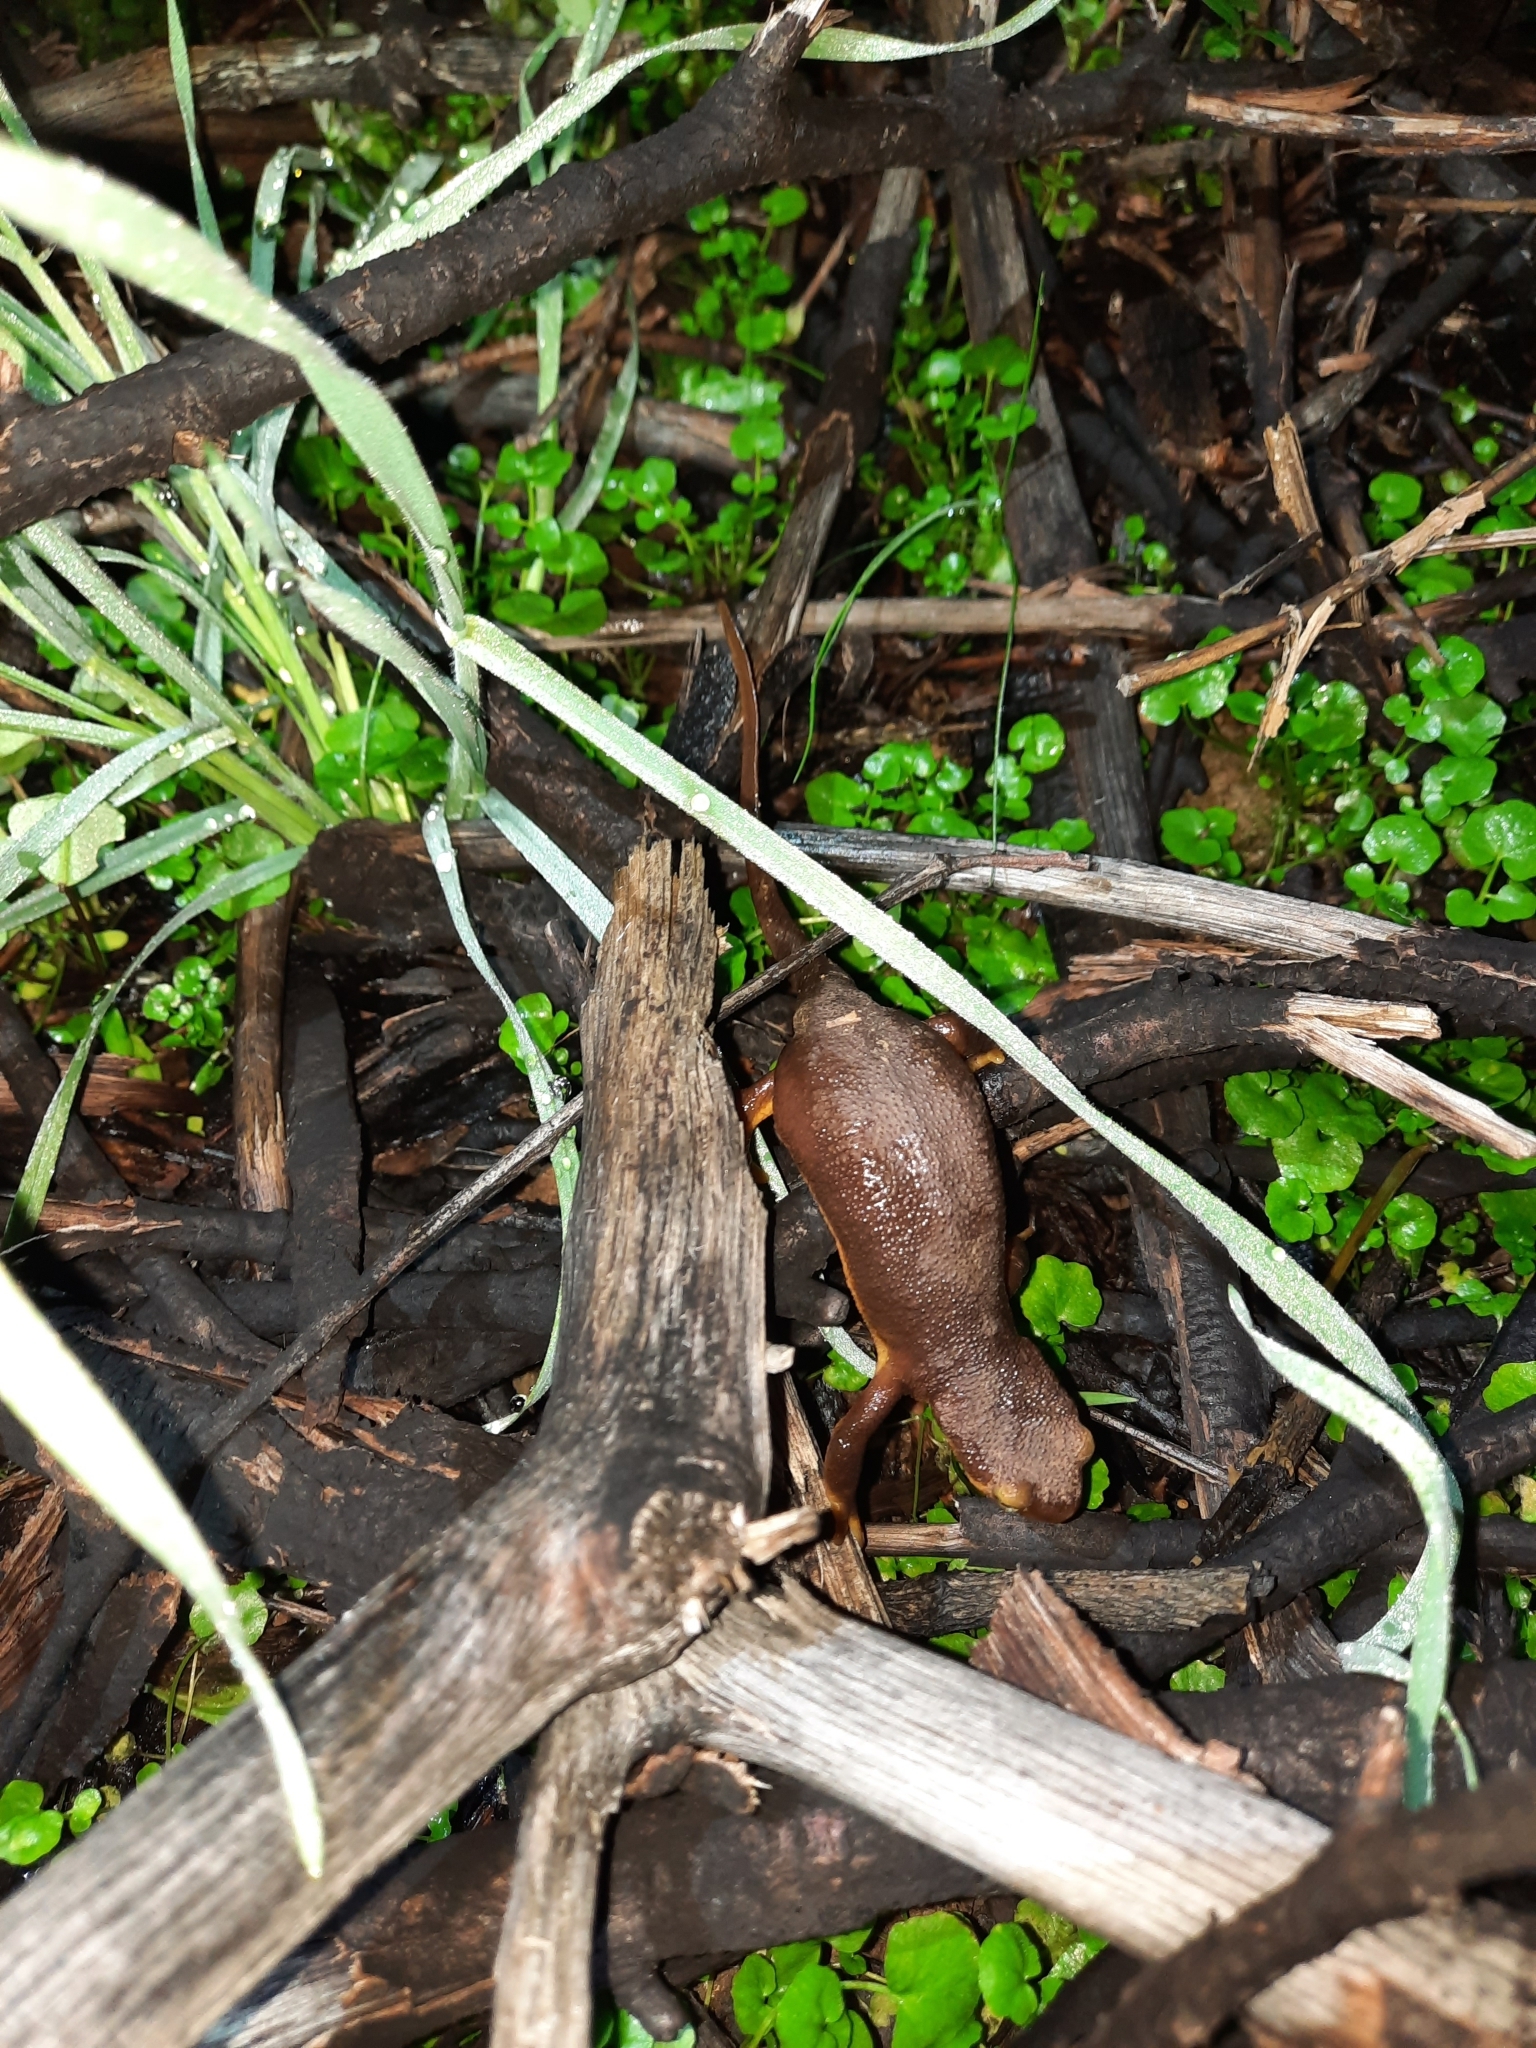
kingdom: Animalia
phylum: Chordata
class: Amphibia
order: Caudata
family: Salamandridae
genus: Taricha
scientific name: Taricha torosa
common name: California newt
